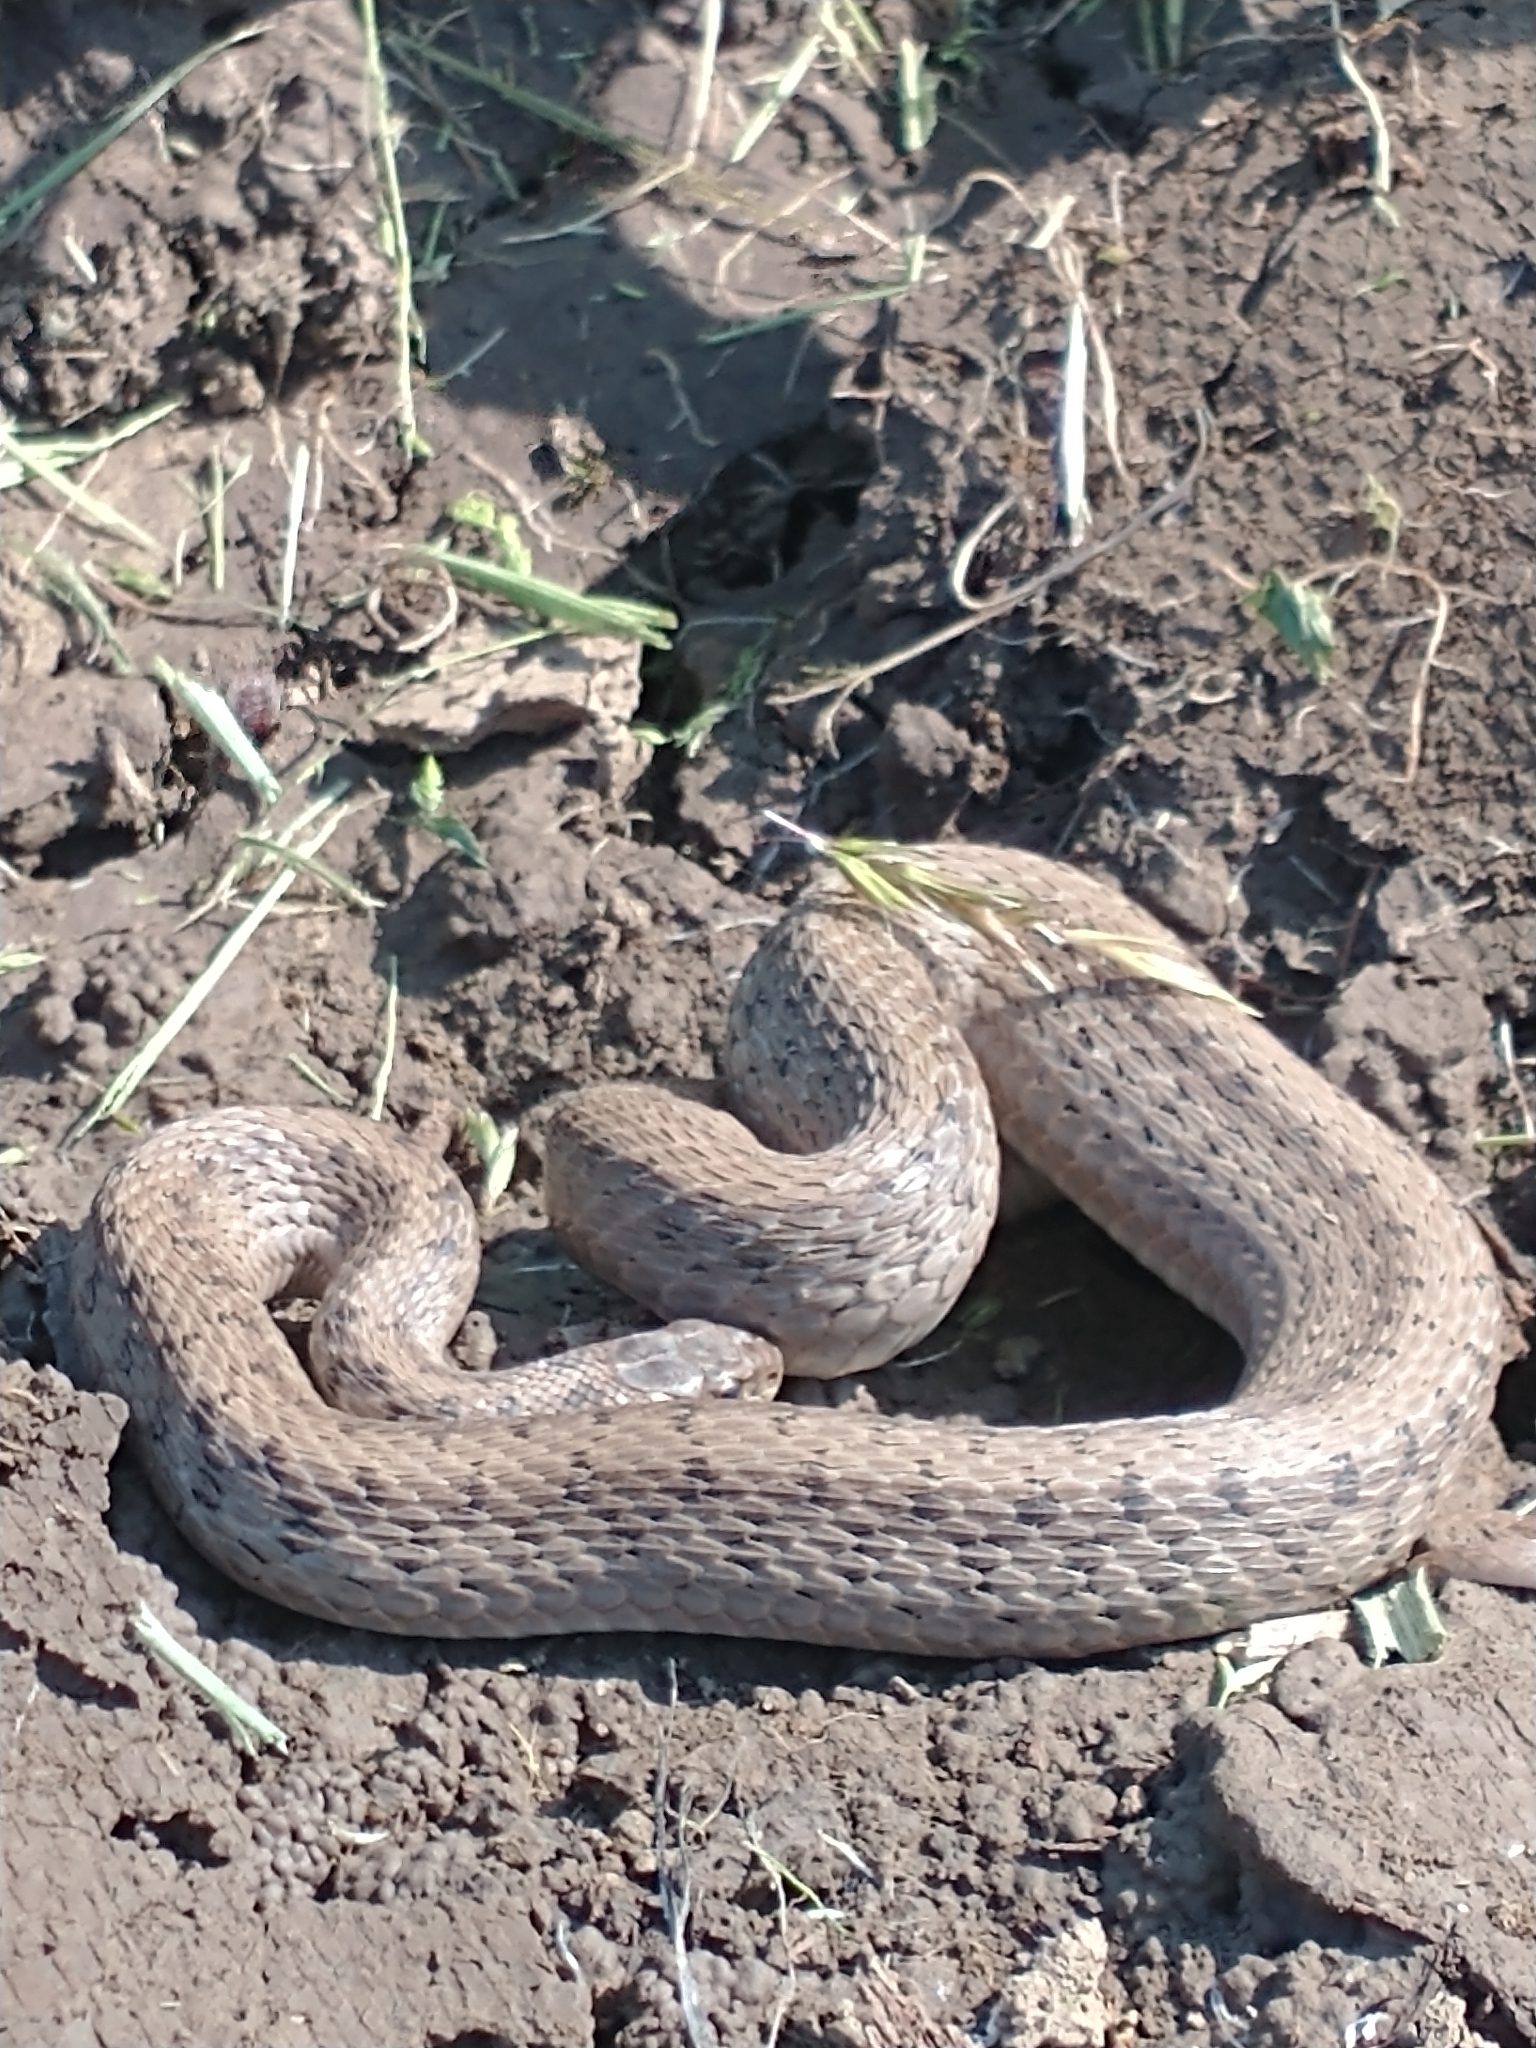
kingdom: Animalia
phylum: Chordata
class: Squamata
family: Colubridae
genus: Storeria
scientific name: Storeria dekayi
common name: (dekay’s) brown snake
